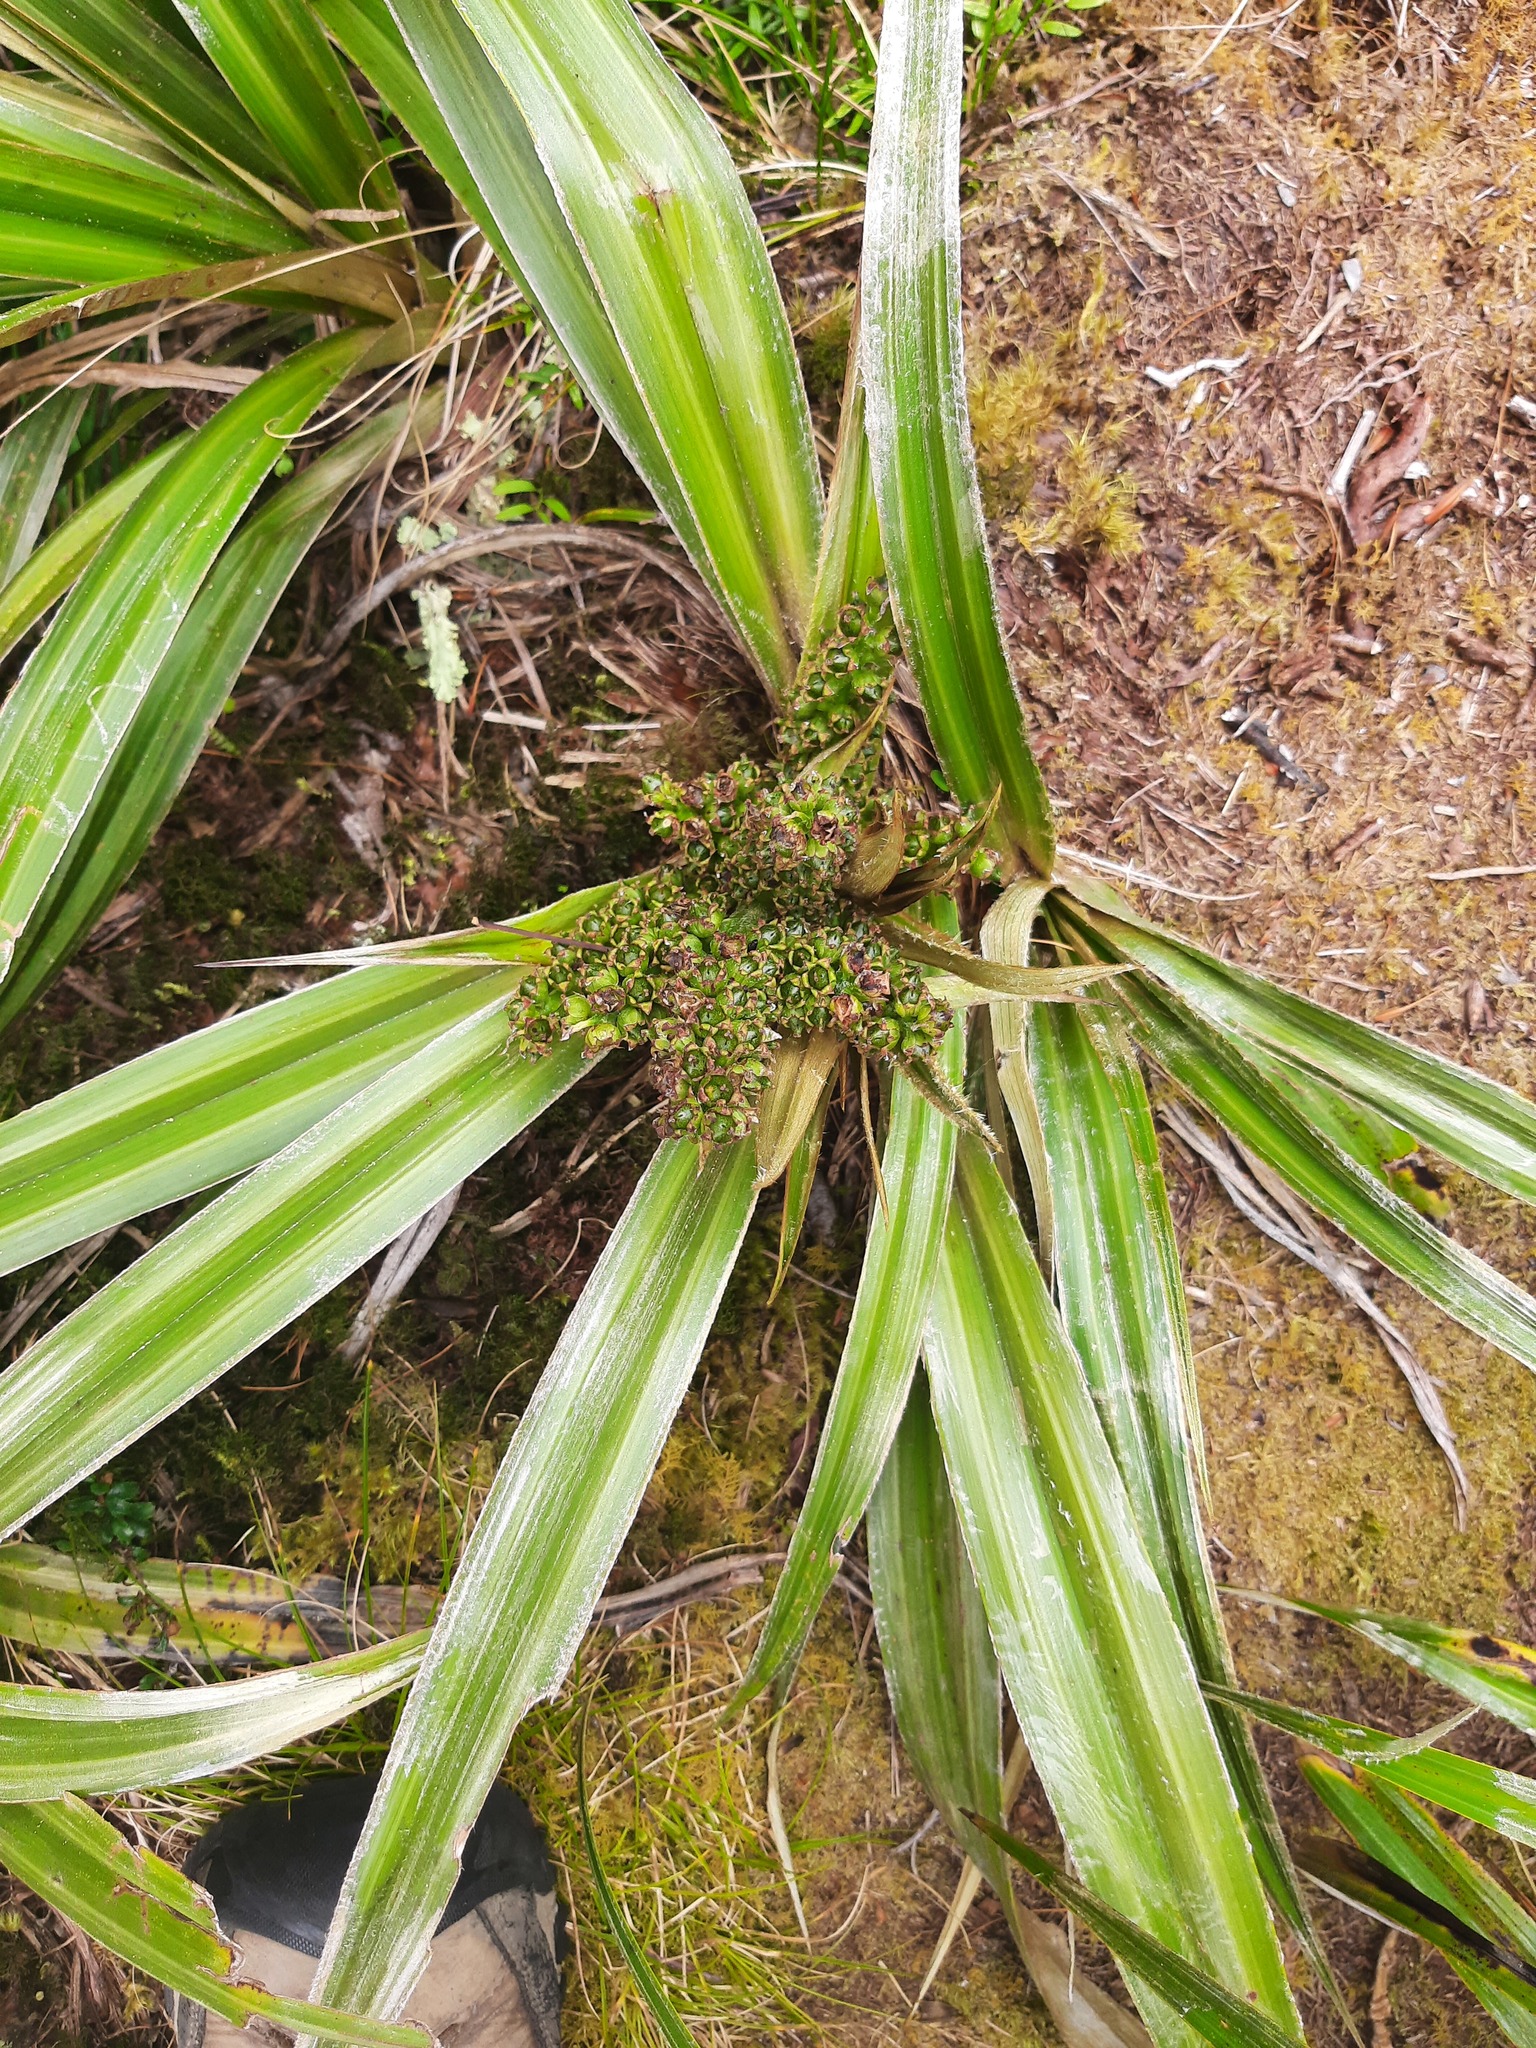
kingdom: Plantae
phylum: Tracheophyta
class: Liliopsida
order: Asparagales
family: Asteliaceae
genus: Astelia
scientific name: Astelia nervosa
